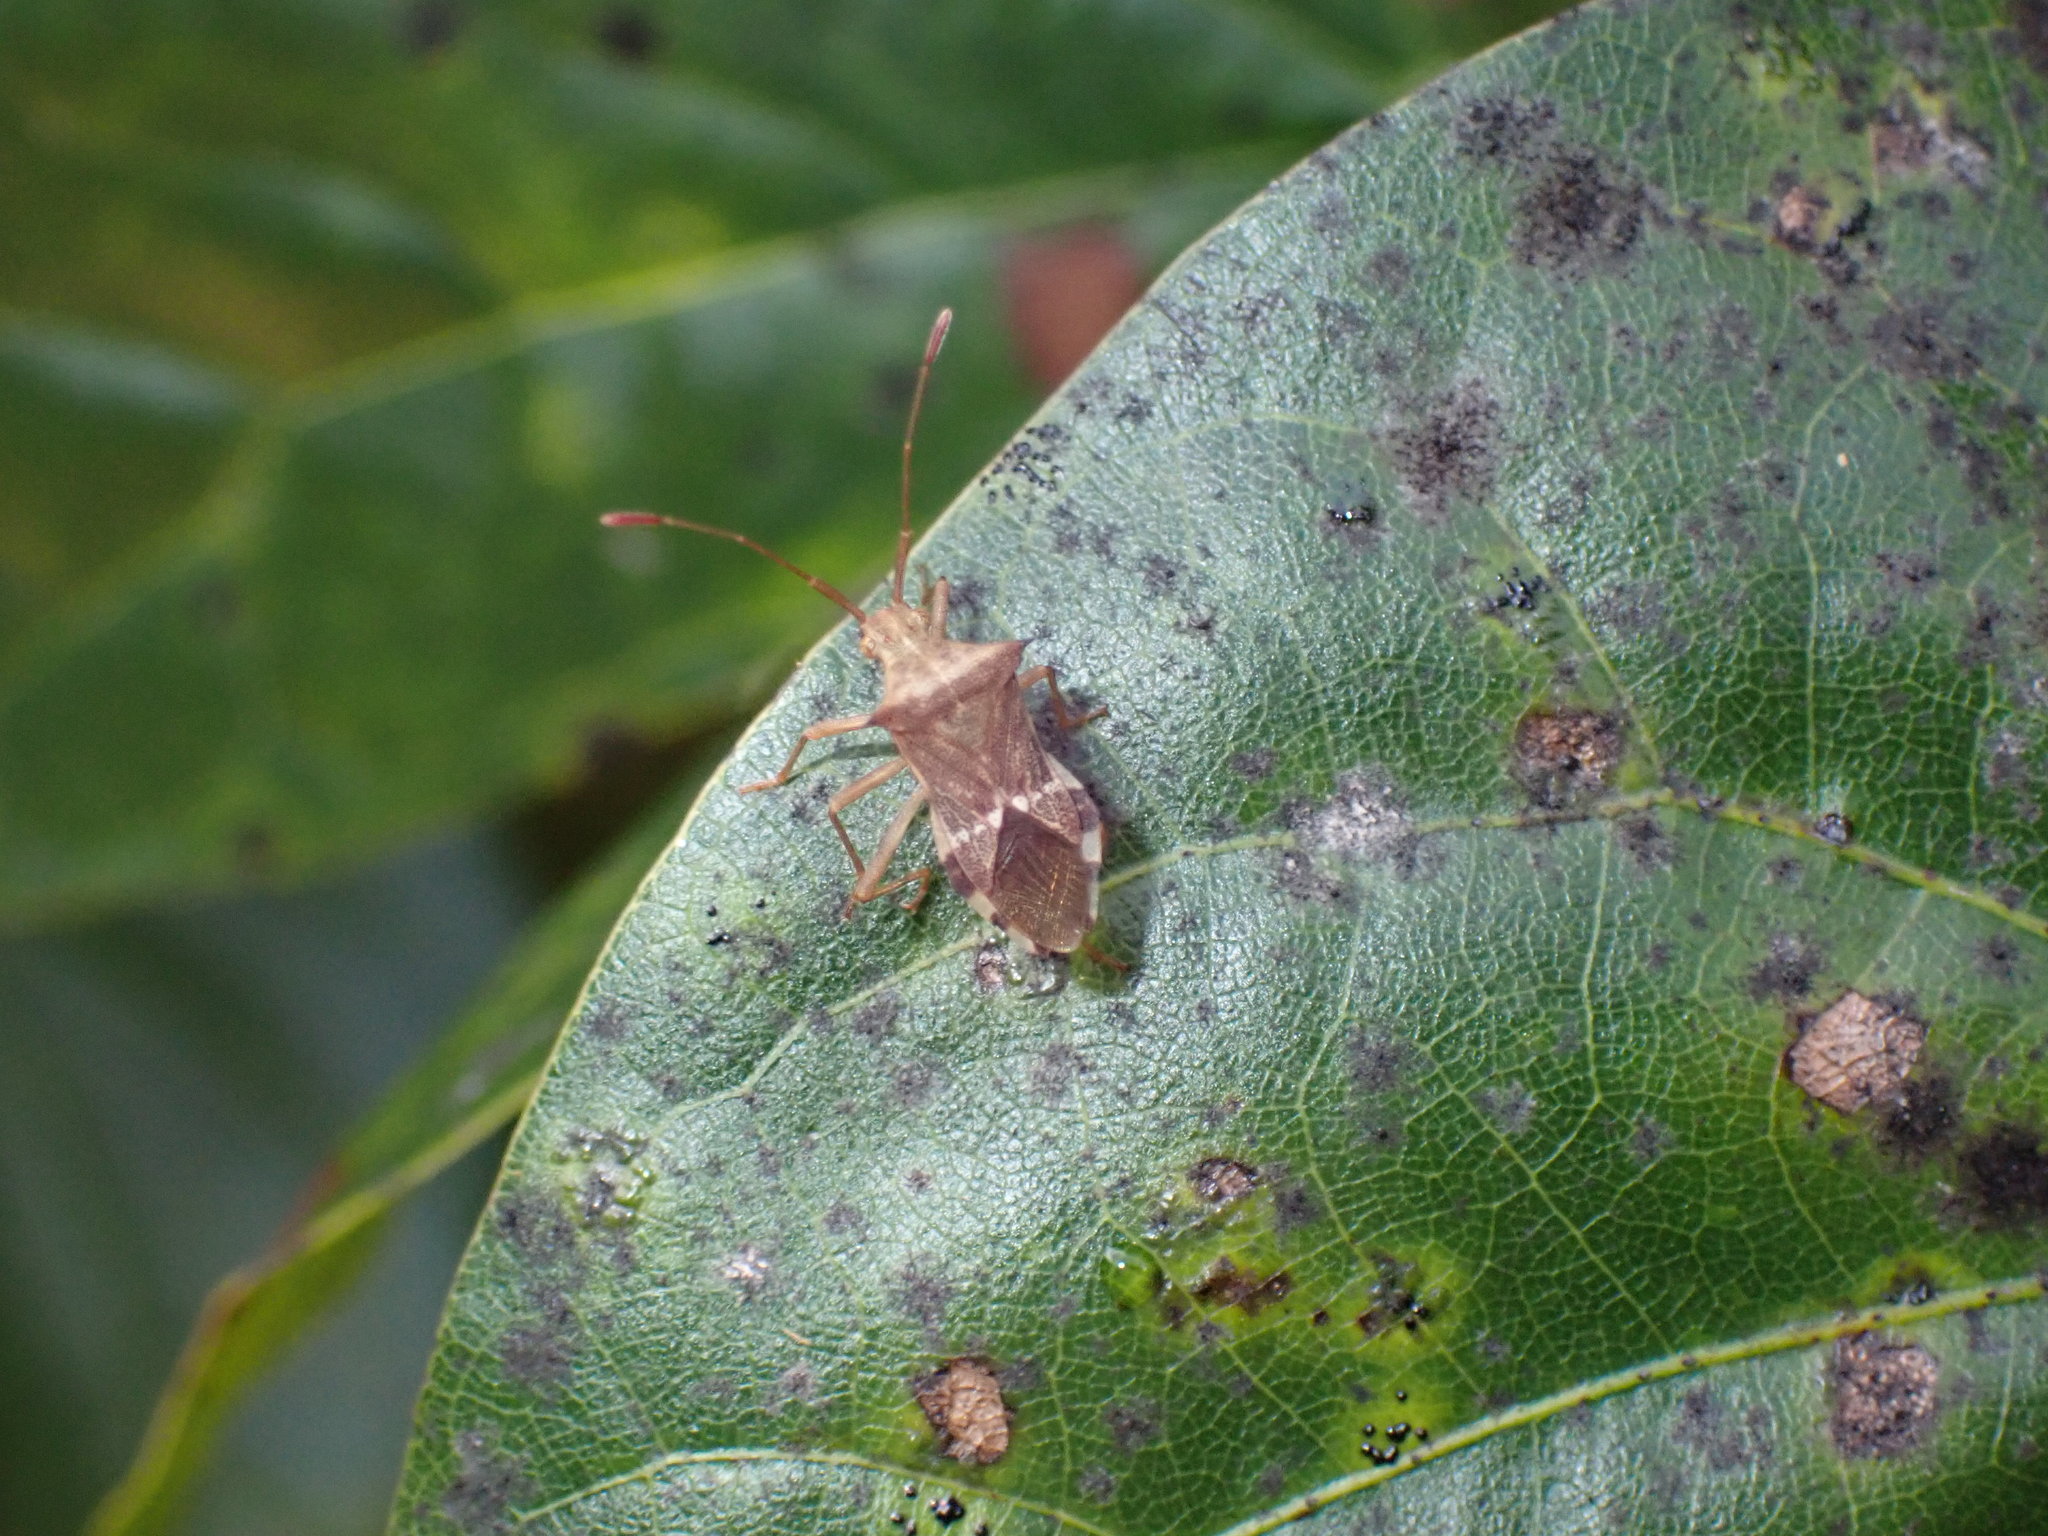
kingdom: Animalia
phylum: Arthropoda
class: Insecta
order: Hemiptera
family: Coreidae
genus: Cletomorpha
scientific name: Cletomorpha benita
